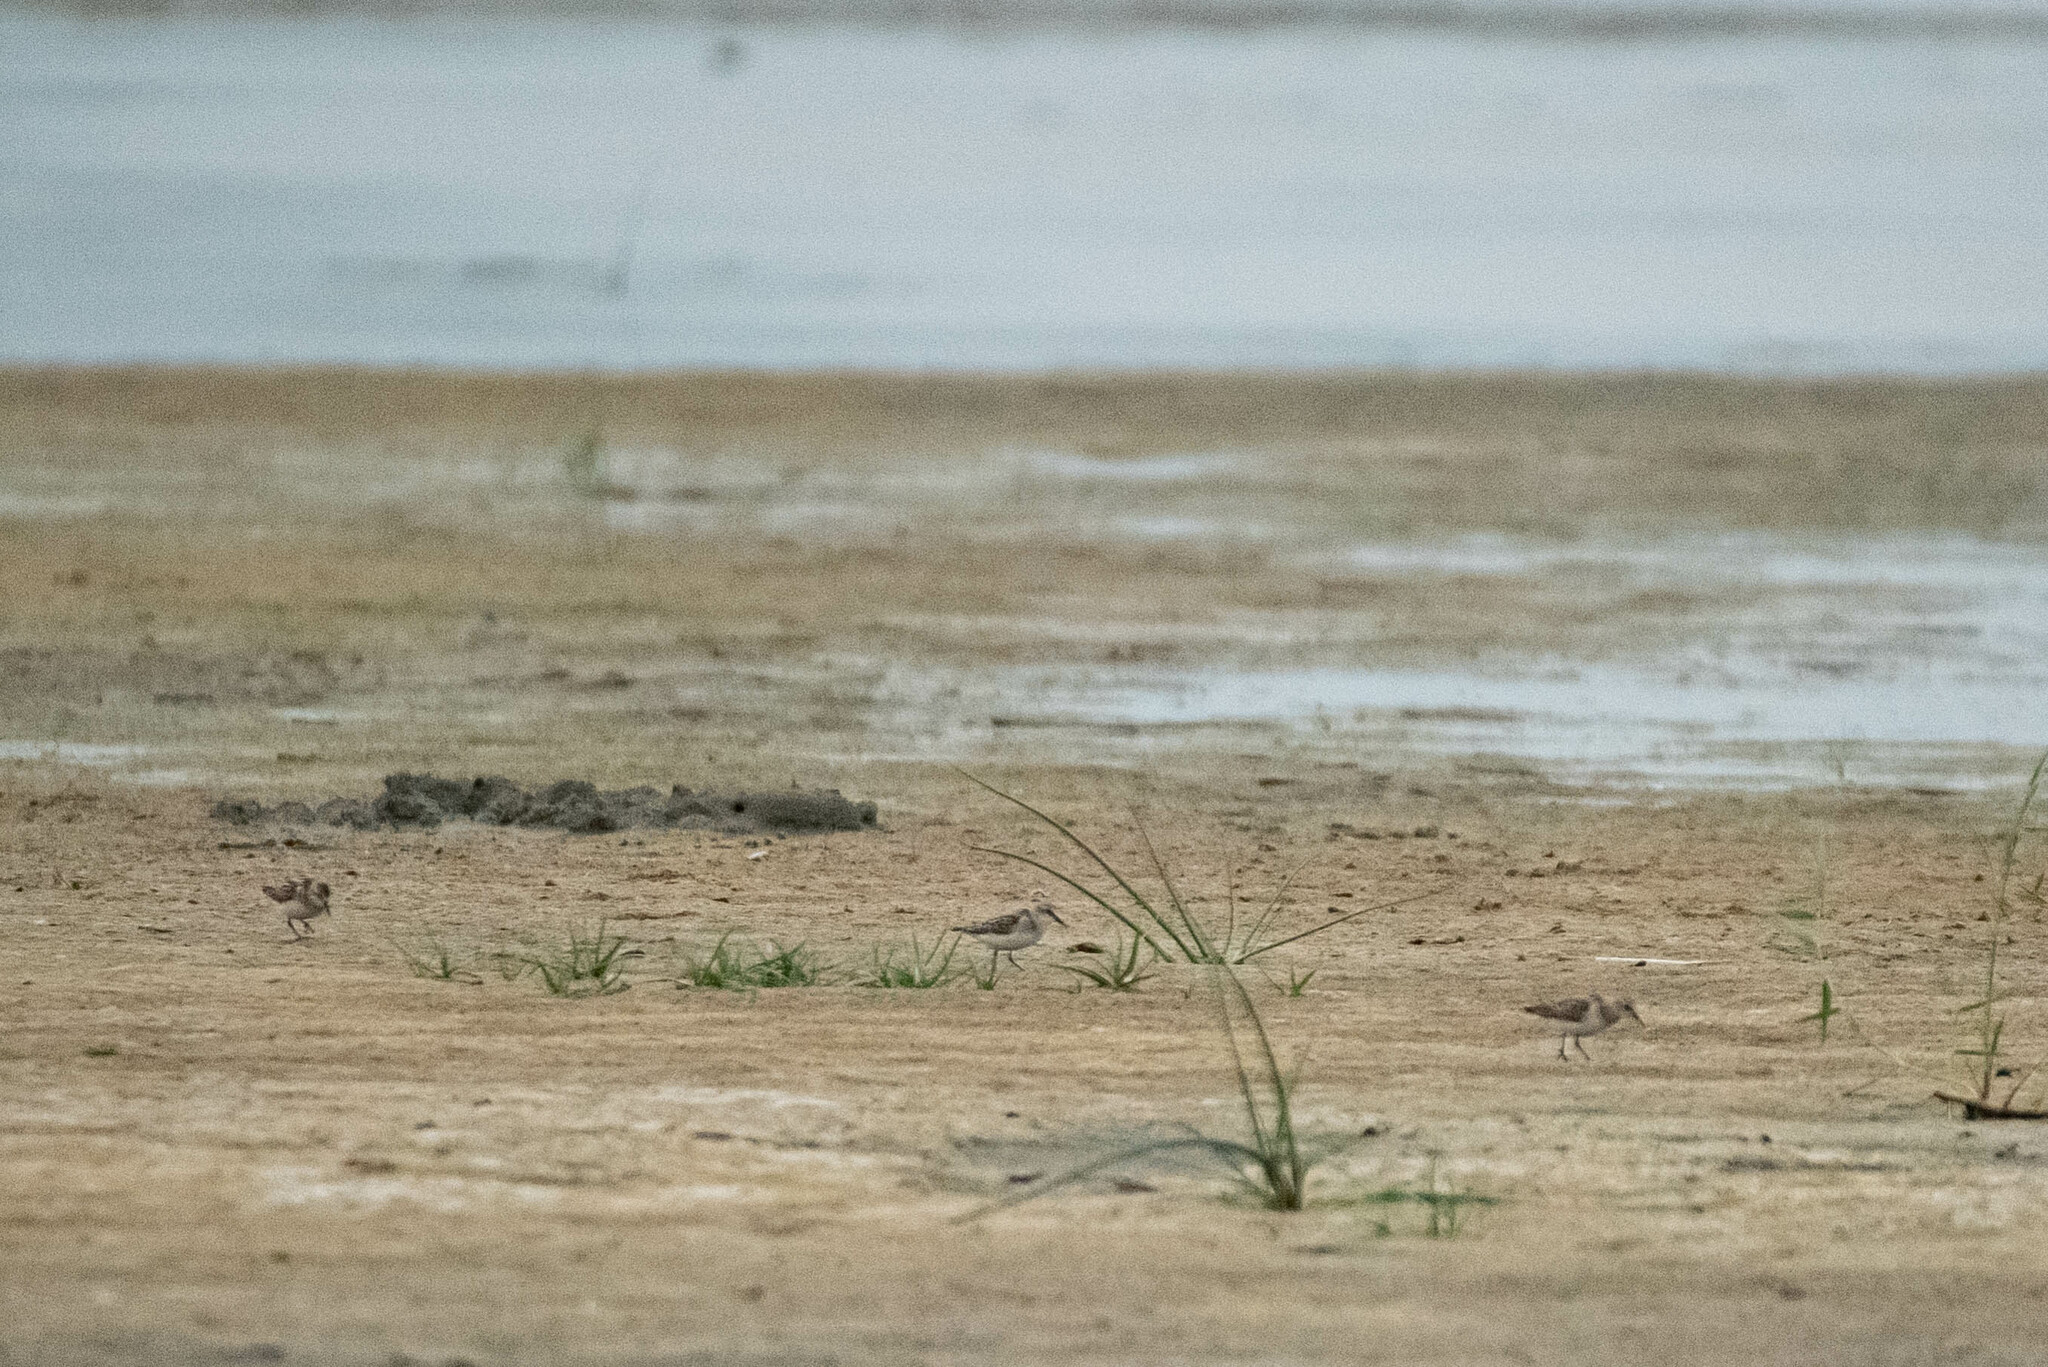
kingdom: Animalia
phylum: Chordata
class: Aves
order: Charadriiformes
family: Scolopacidae
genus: Calidris
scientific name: Calidris minuta
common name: Little stint
